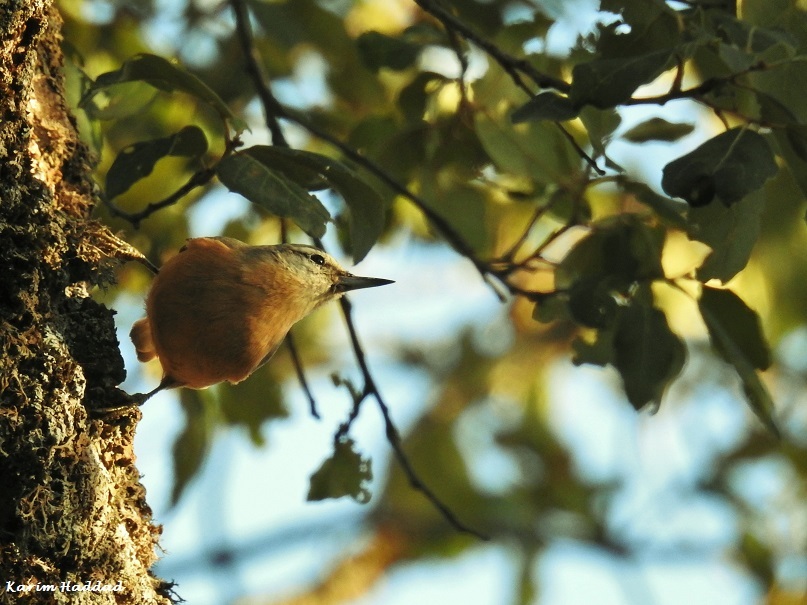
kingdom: Animalia
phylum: Chordata
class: Aves
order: Passeriformes
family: Sittidae
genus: Sitta
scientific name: Sitta ledanti
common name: Algerian nuthatch
